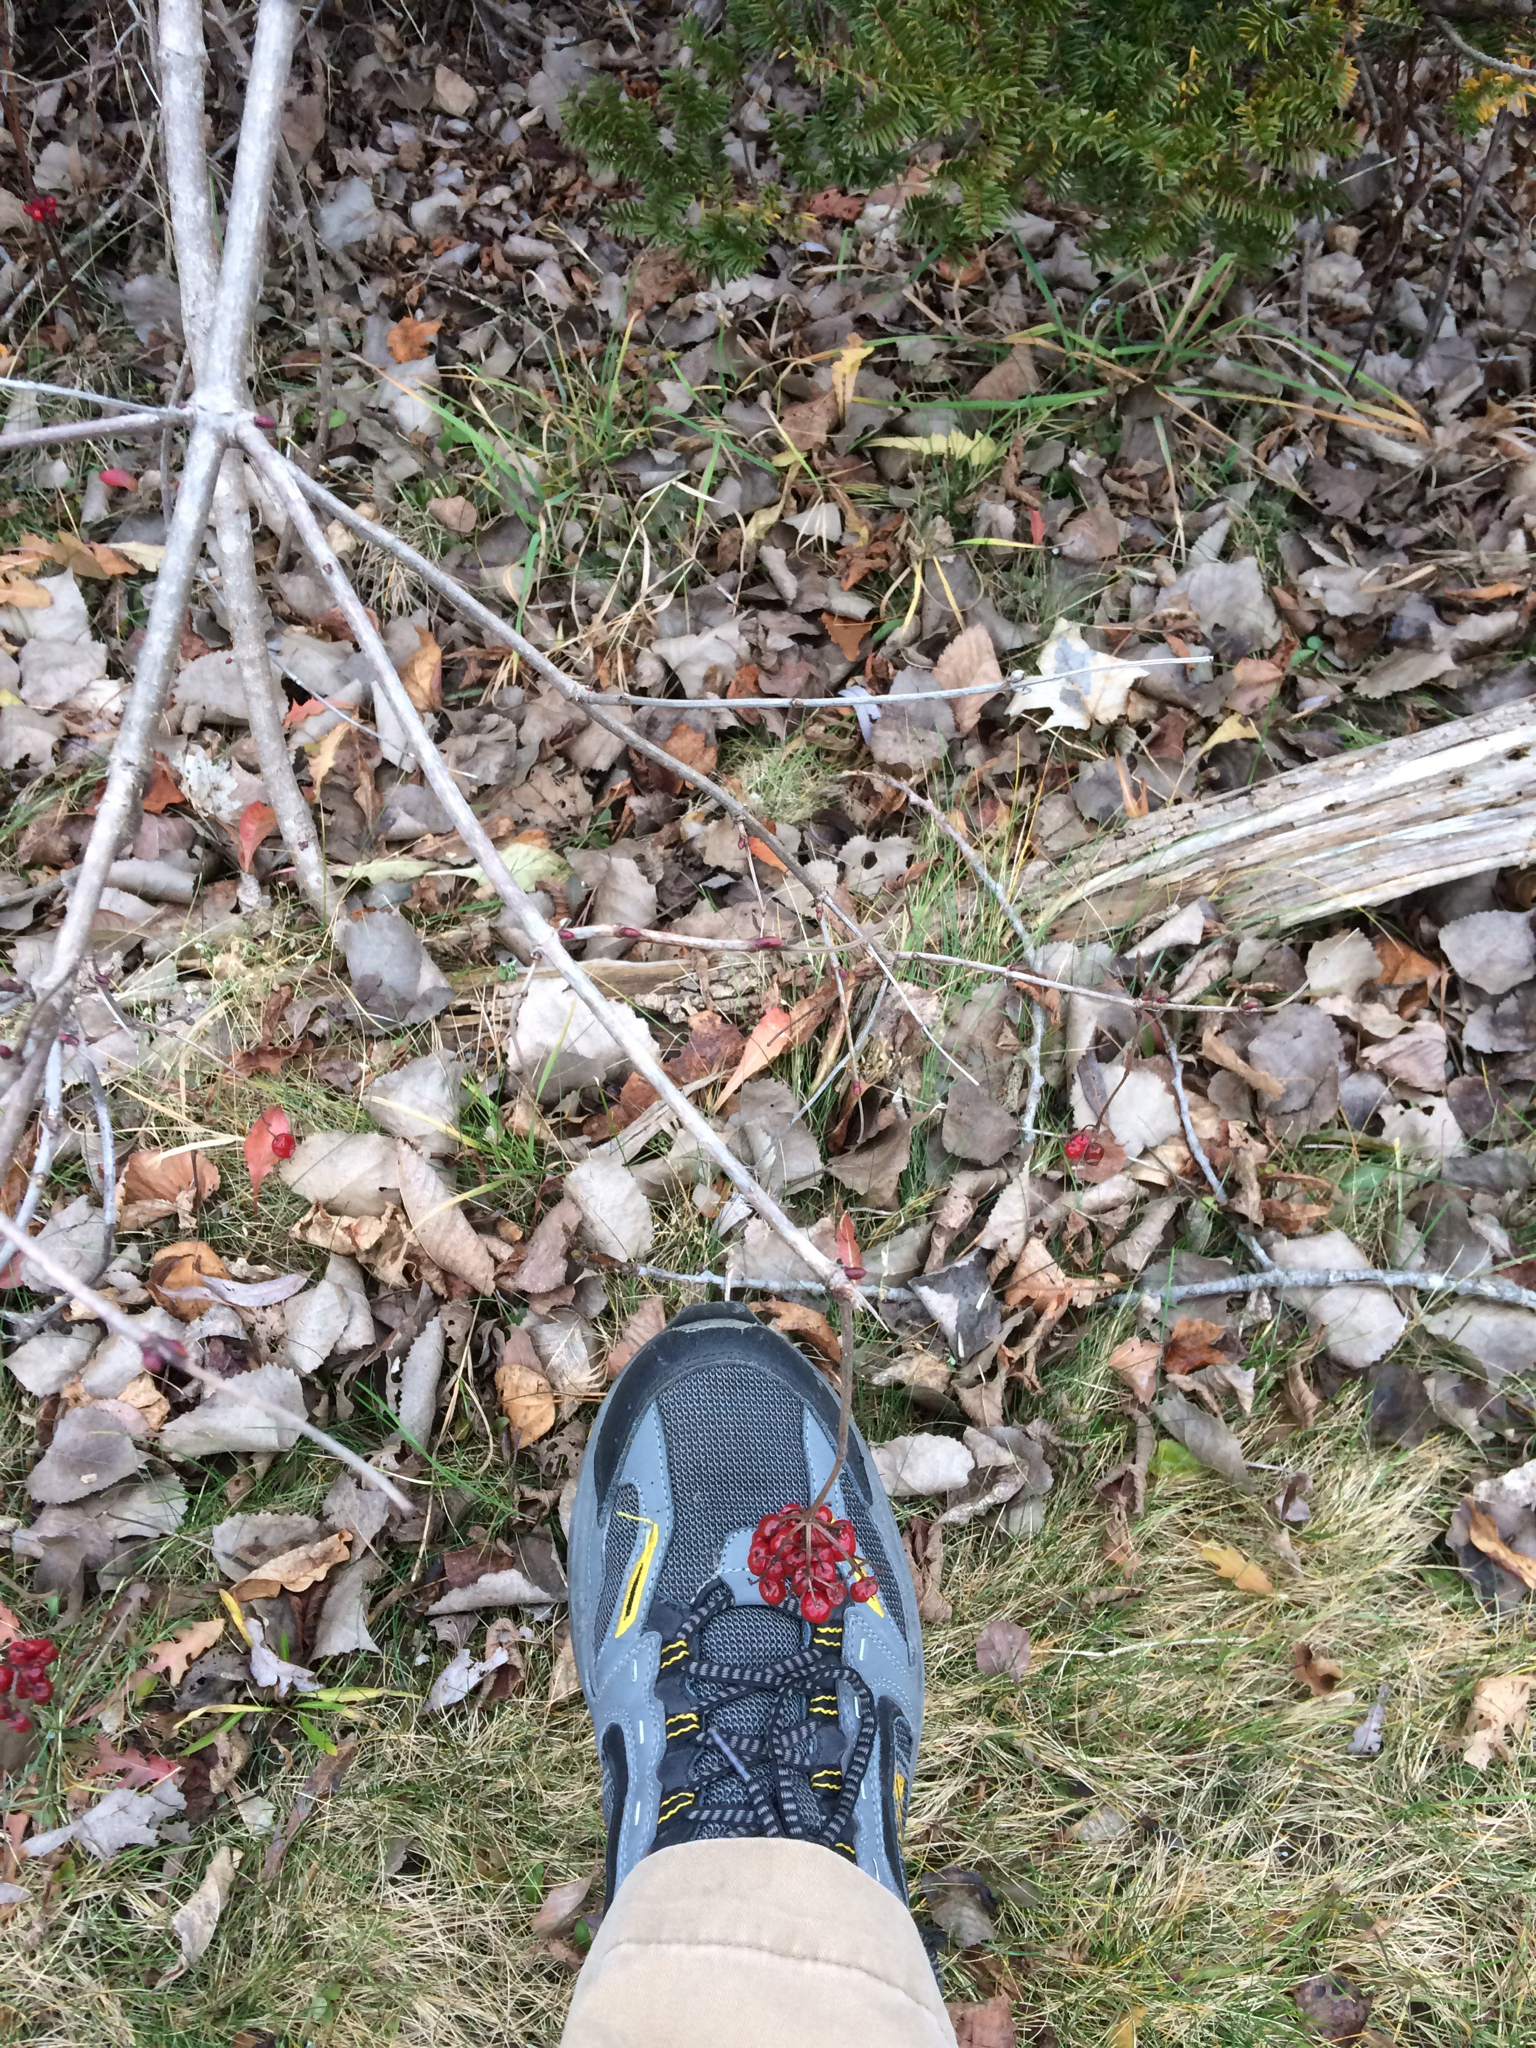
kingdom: Plantae
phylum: Tracheophyta
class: Magnoliopsida
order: Dipsacales
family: Viburnaceae
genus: Viburnum
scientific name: Viburnum opulus
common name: Guelder-rose
